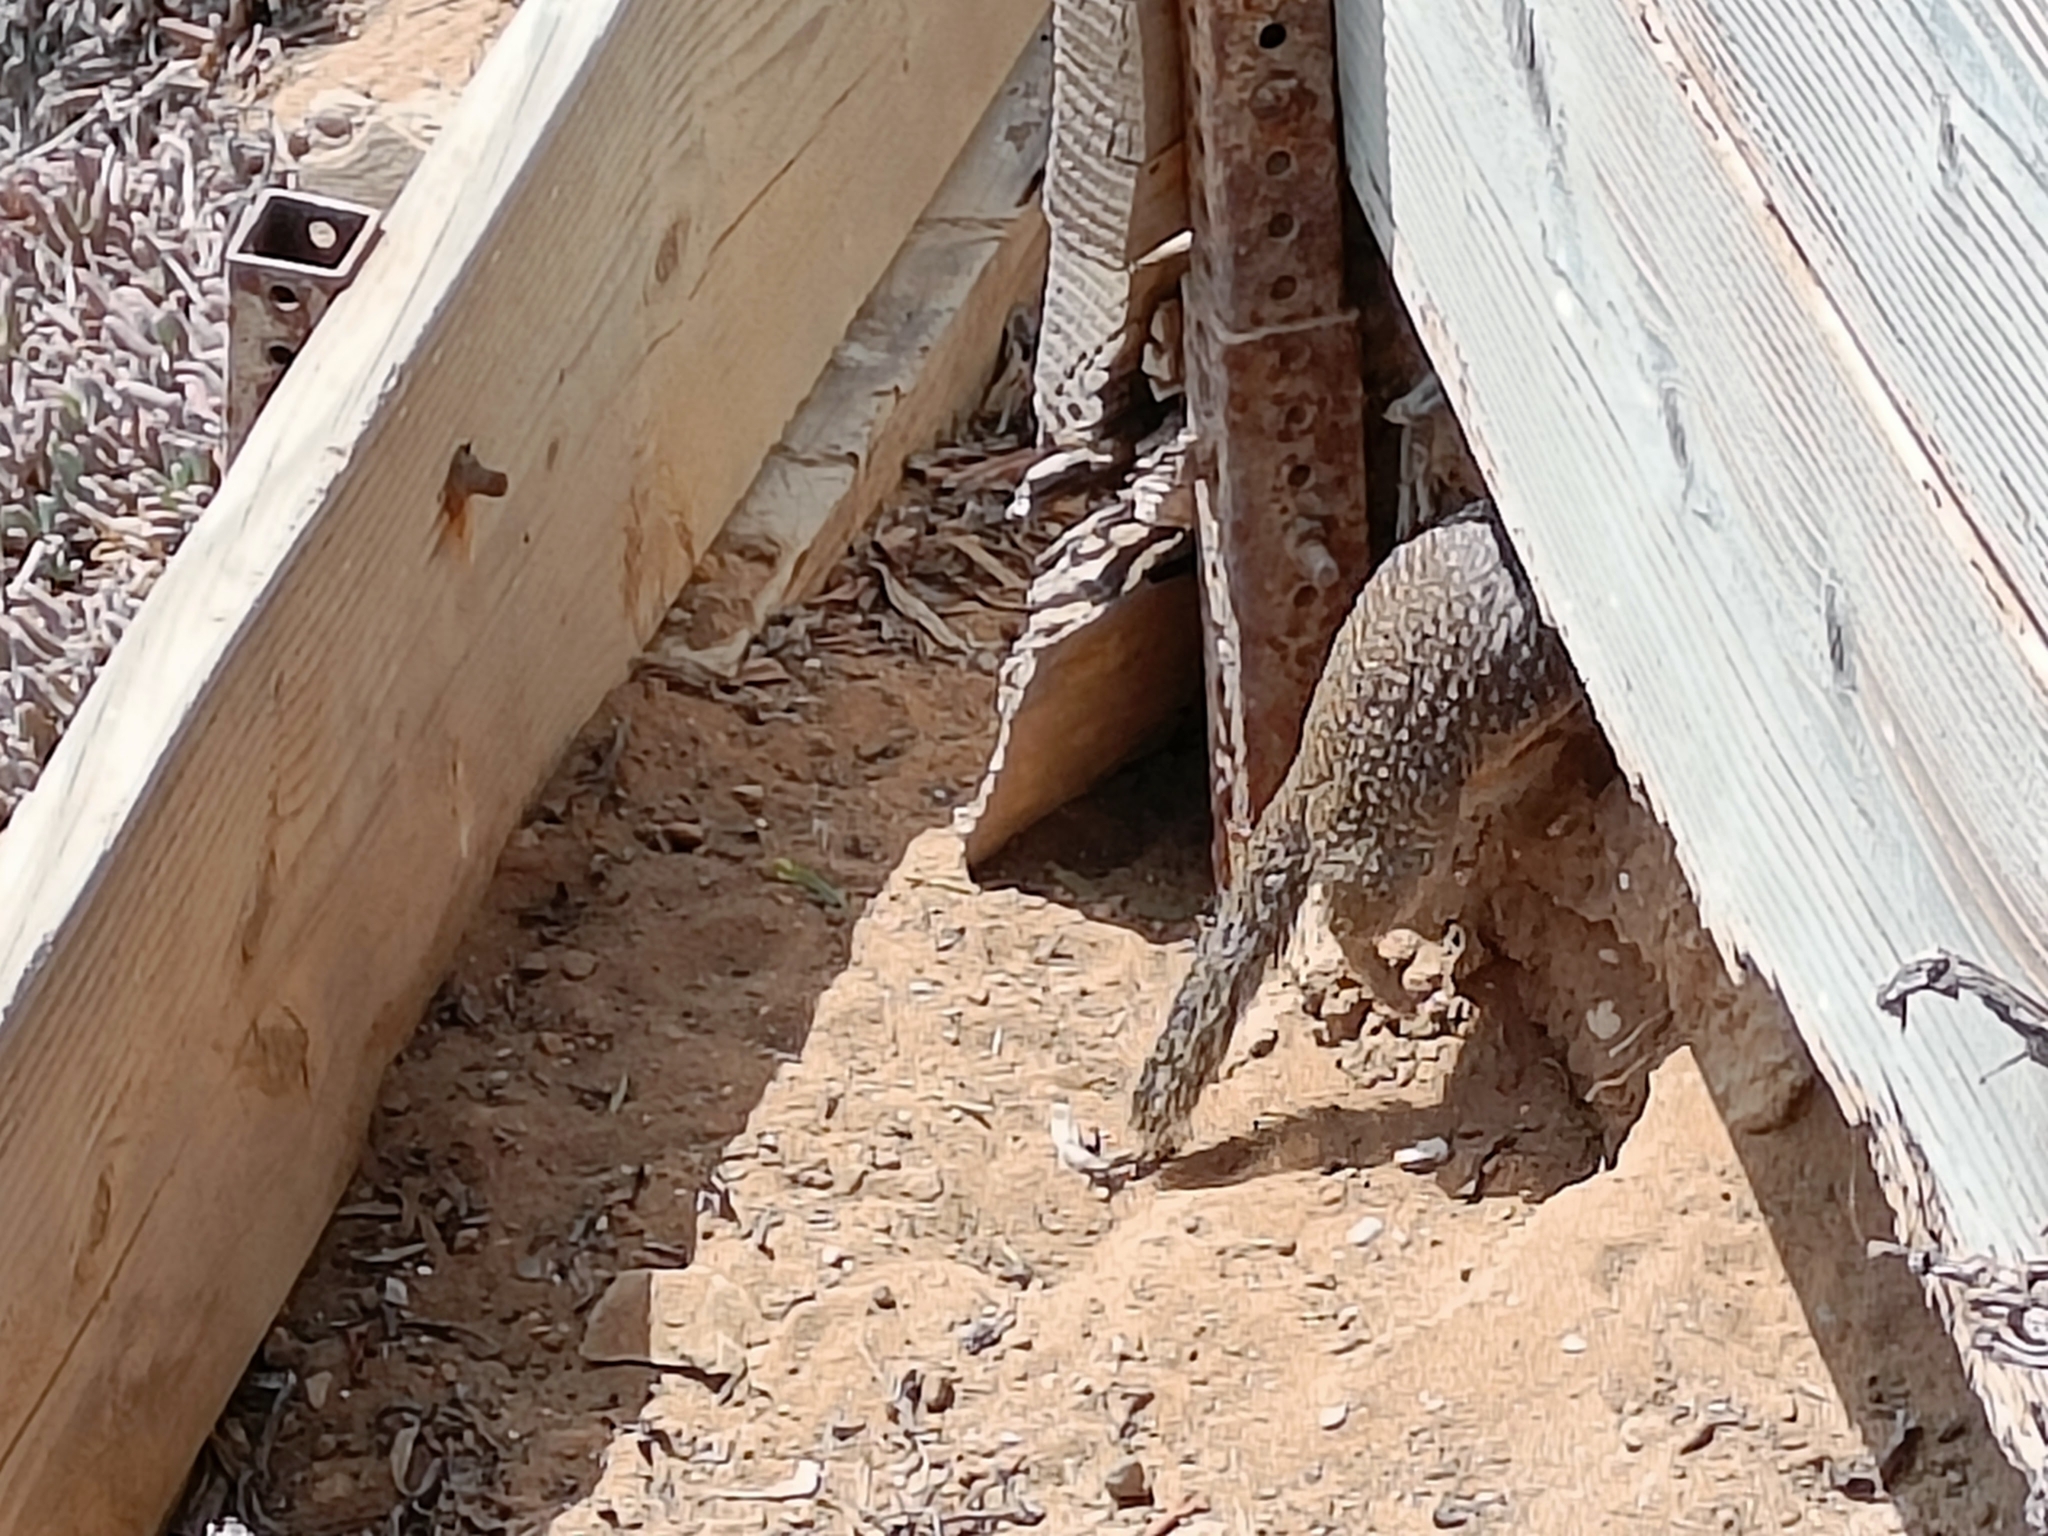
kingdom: Animalia
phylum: Chordata
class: Mammalia
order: Rodentia
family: Sciuridae
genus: Otospermophilus
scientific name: Otospermophilus beecheyi
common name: California ground squirrel
